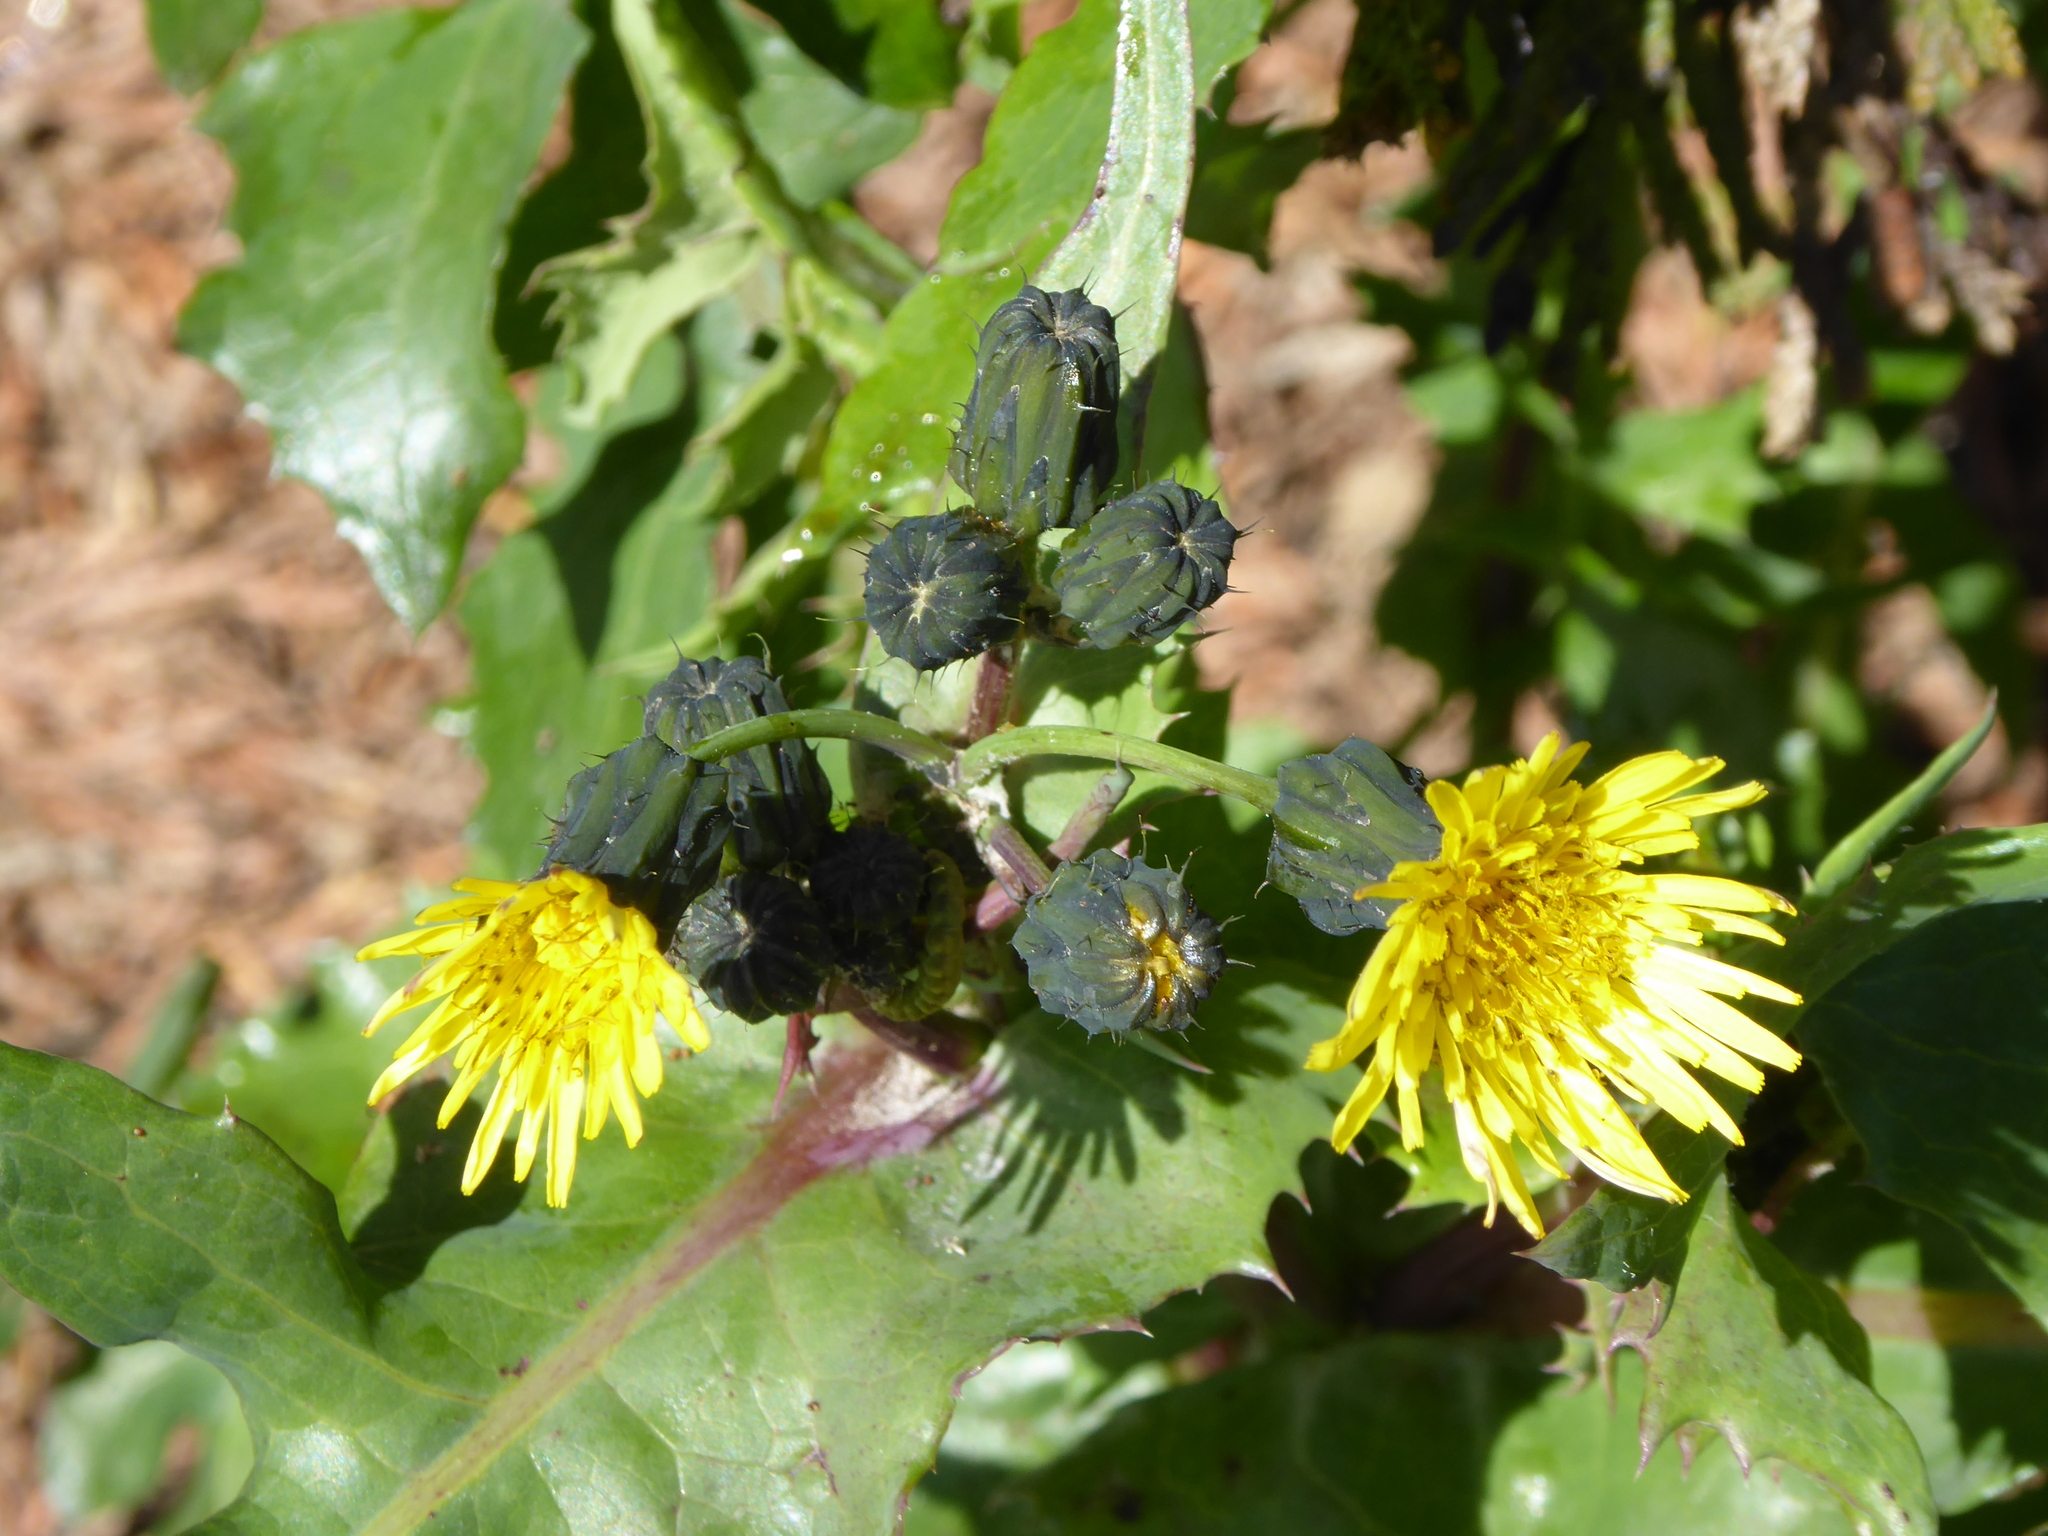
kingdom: Plantae
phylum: Tracheophyta
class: Magnoliopsida
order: Asterales
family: Asteraceae
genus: Sonchus
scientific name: Sonchus oleraceus
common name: Common sowthistle
